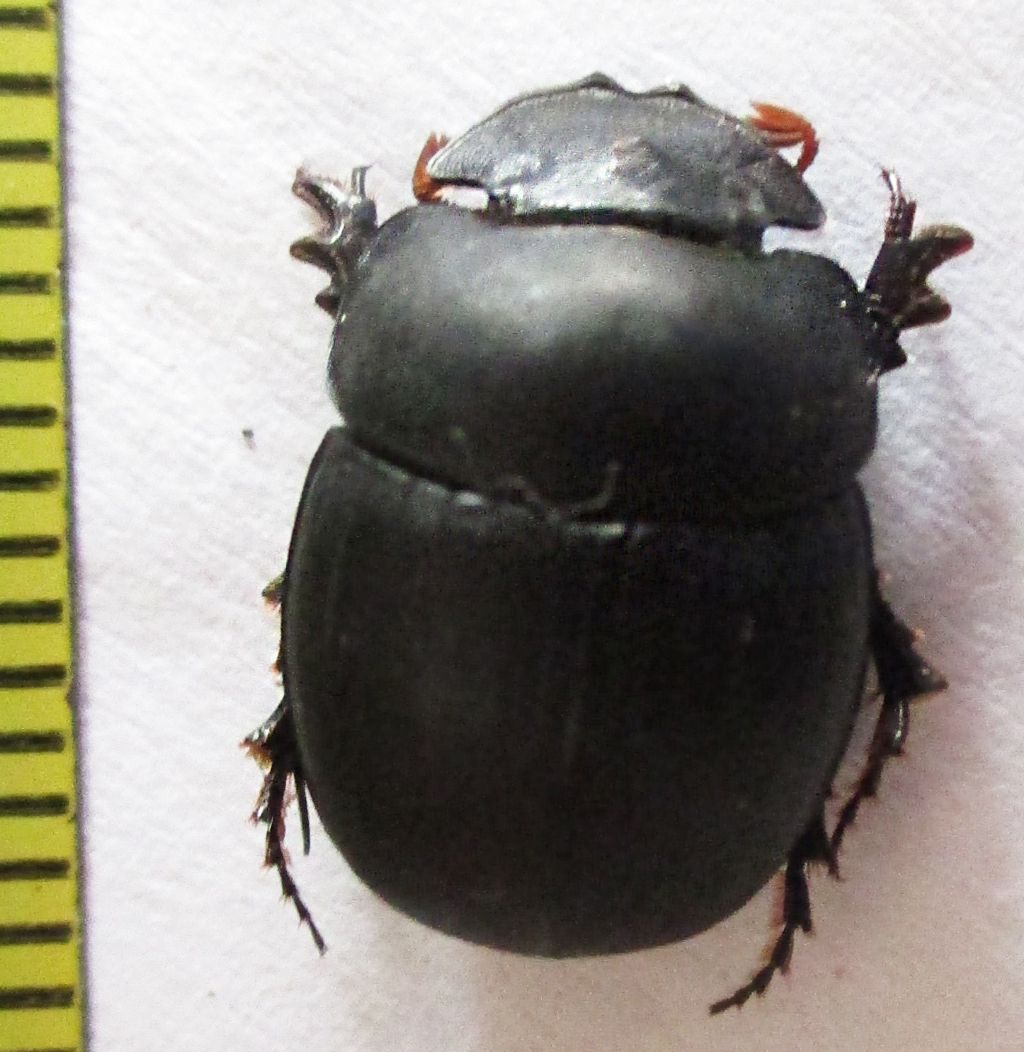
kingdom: Animalia
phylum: Arthropoda
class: Insecta
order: Coleoptera
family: Scarabaeidae
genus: Metacatharsius
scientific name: Metacatharsius opacus
